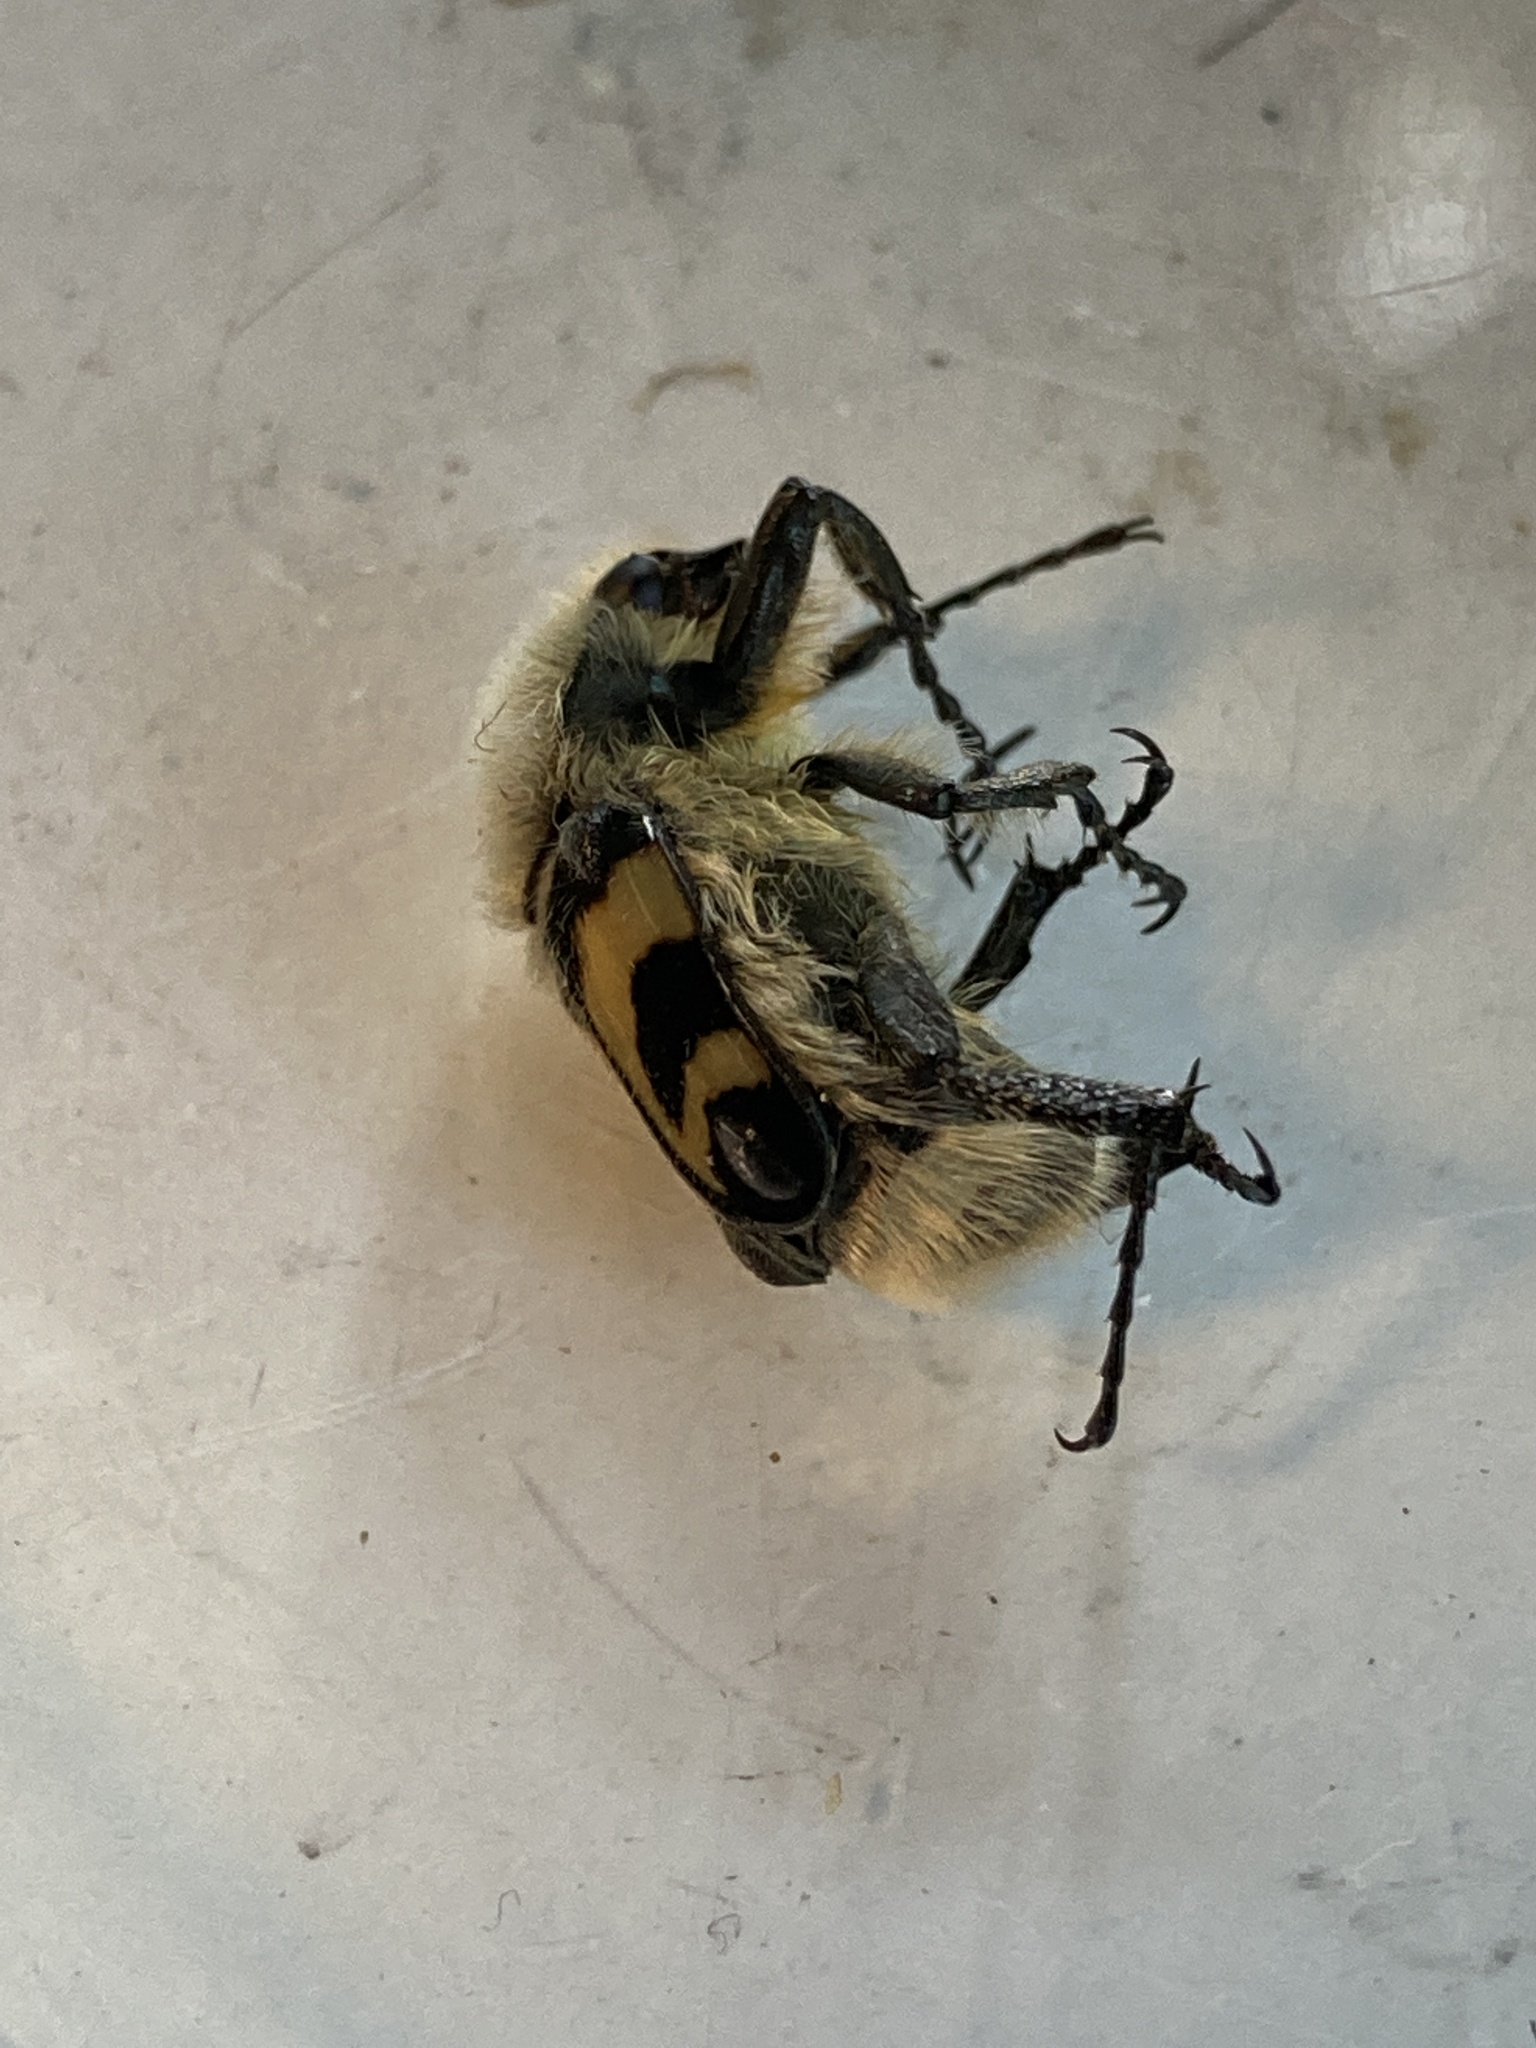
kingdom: Animalia
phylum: Arthropoda
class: Insecta
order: Coleoptera
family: Scarabaeidae
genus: Trichius
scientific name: Trichius fasciatus
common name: Bee beetle
